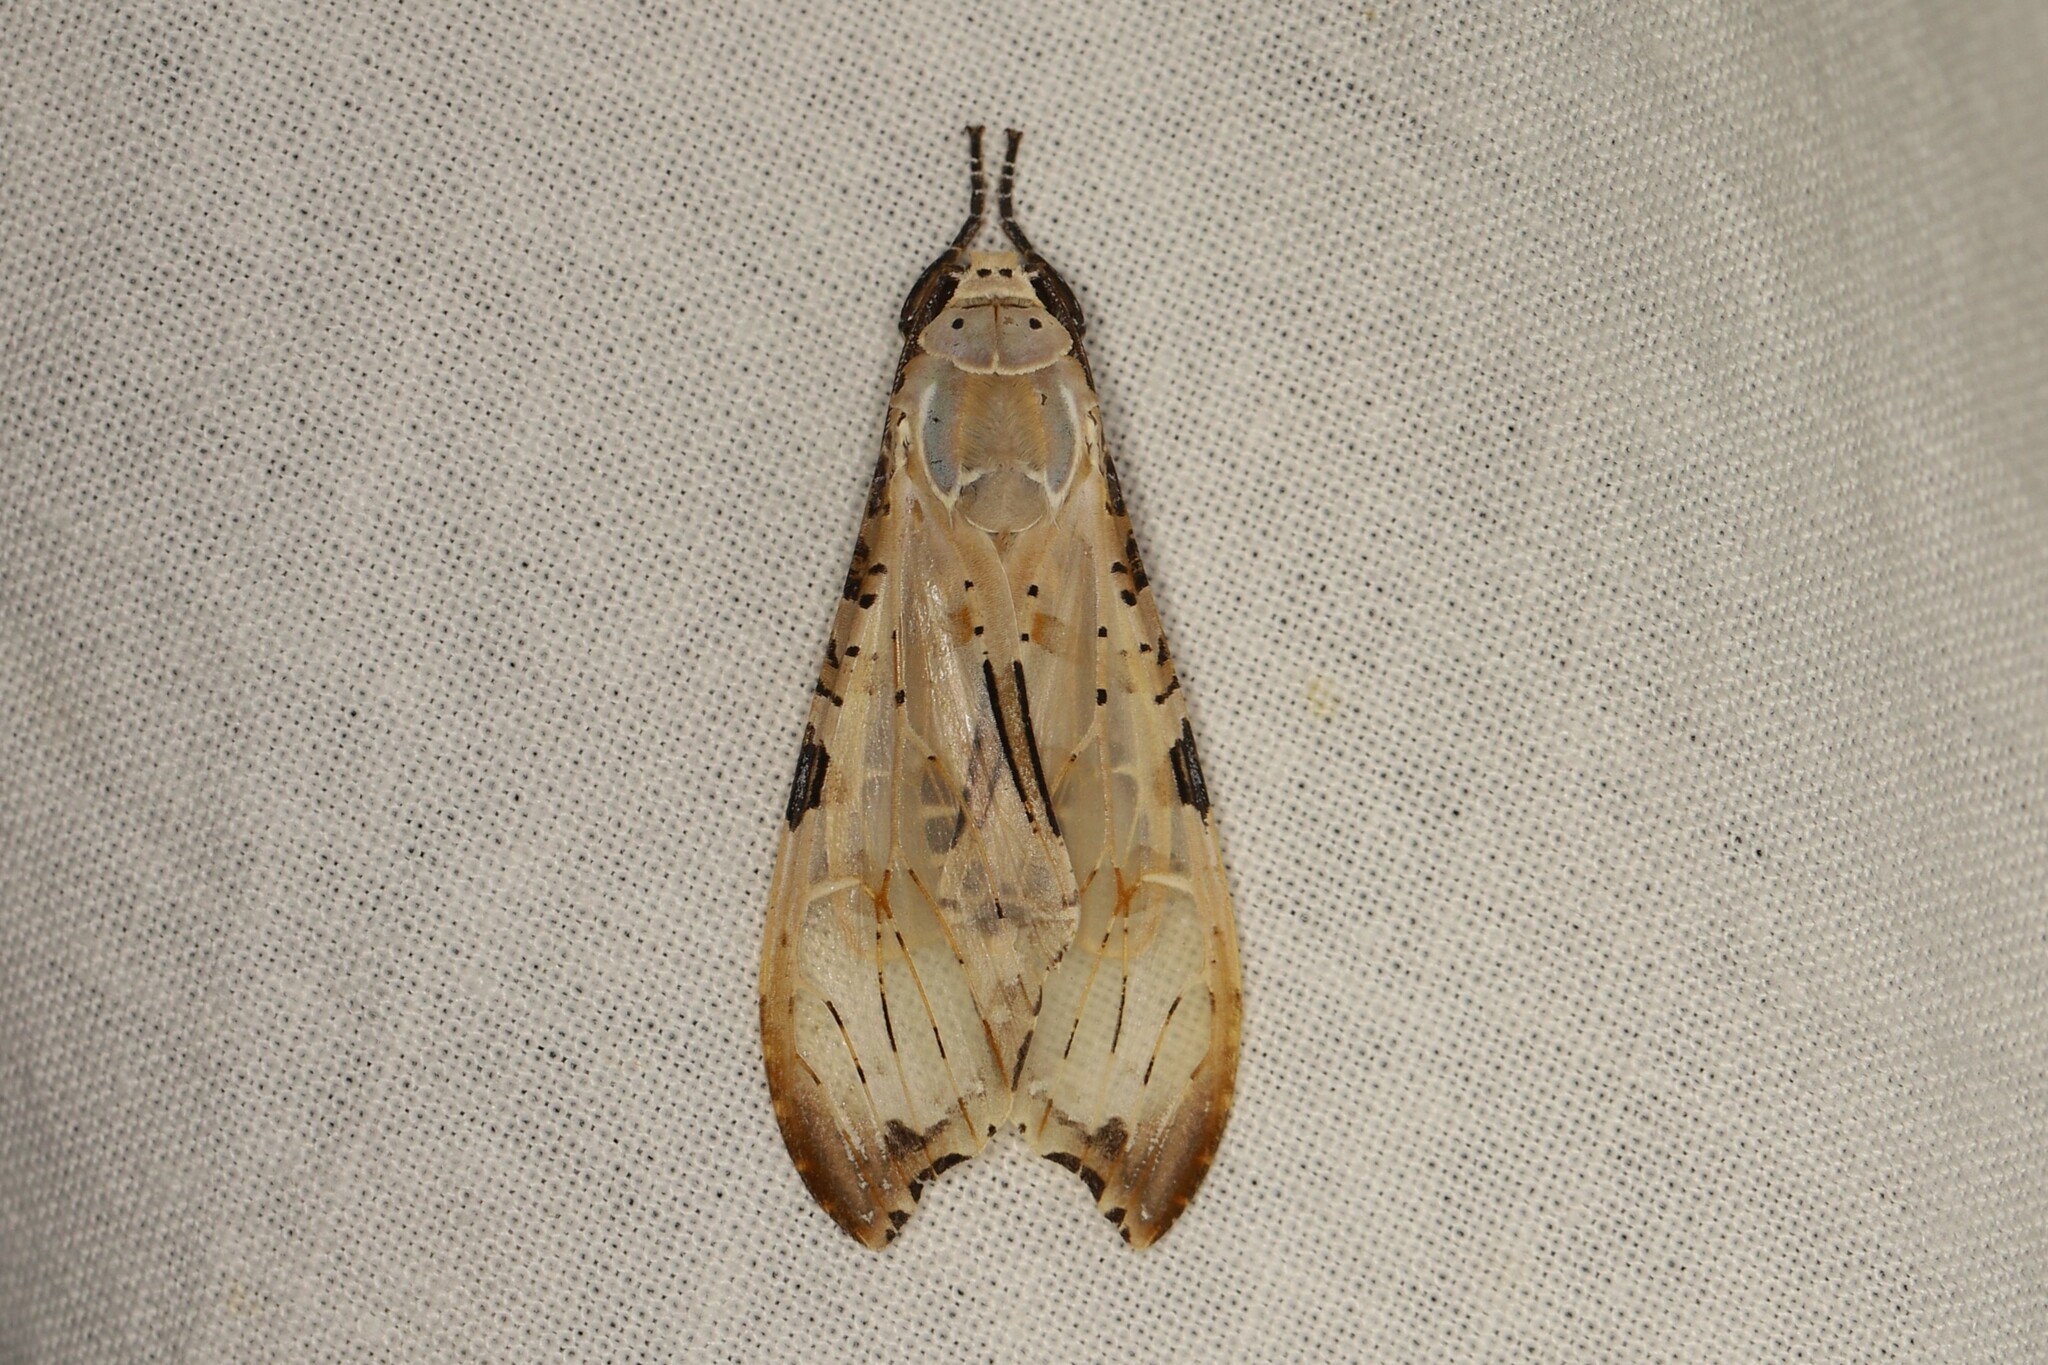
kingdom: Animalia
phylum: Arthropoda
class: Insecta
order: Lepidoptera
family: Erebidae
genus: Psychophasma
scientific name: Psychophasma erosa
